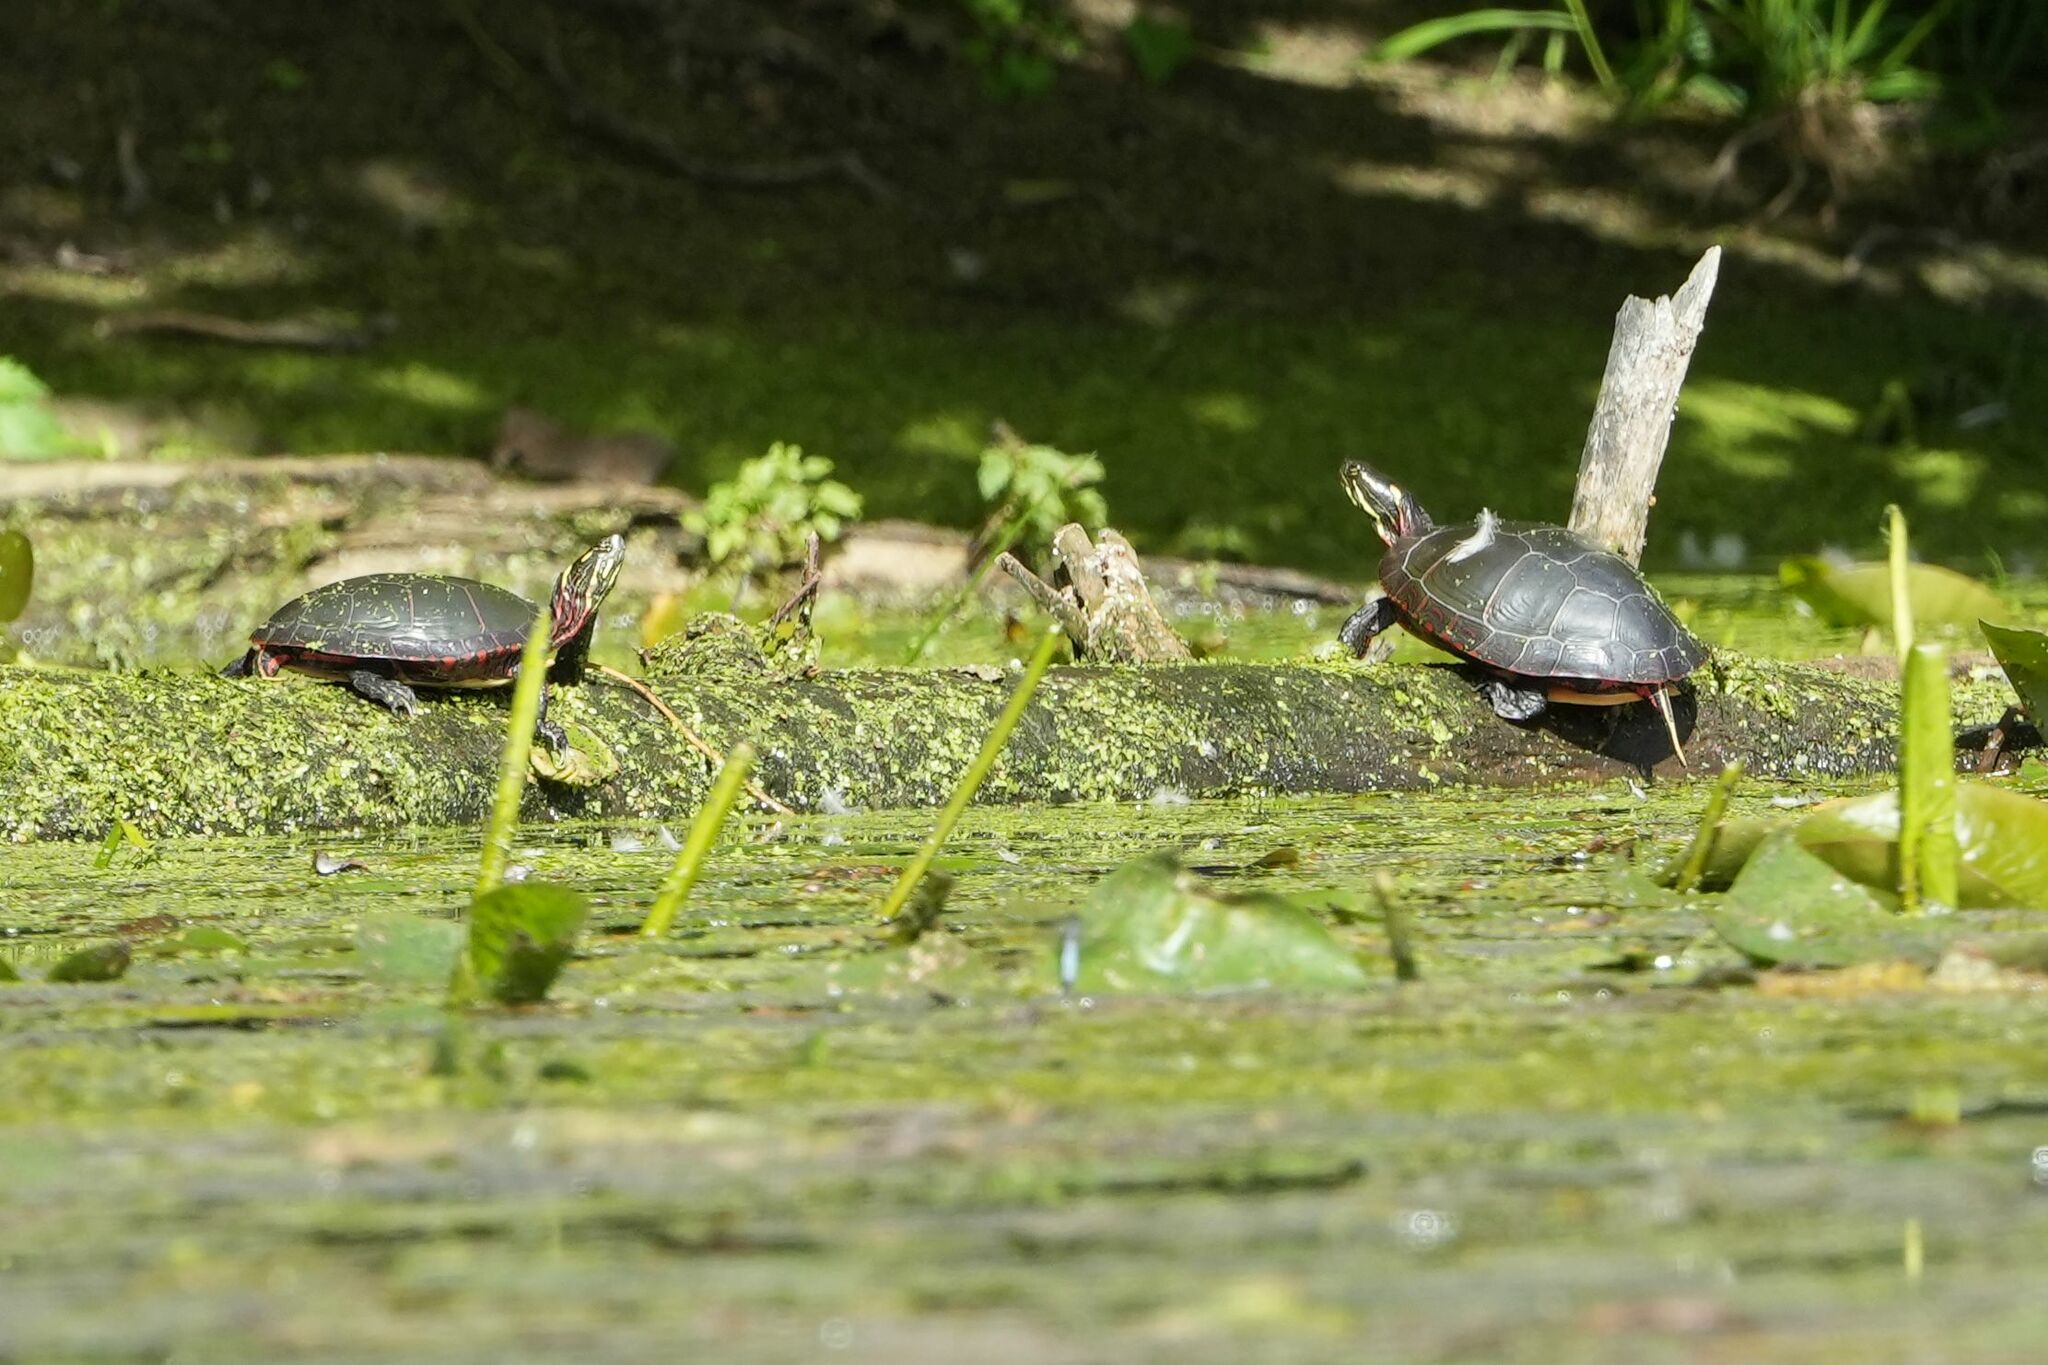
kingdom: Animalia
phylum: Chordata
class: Testudines
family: Emydidae
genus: Chrysemys
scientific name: Chrysemys picta
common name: Painted turtle
